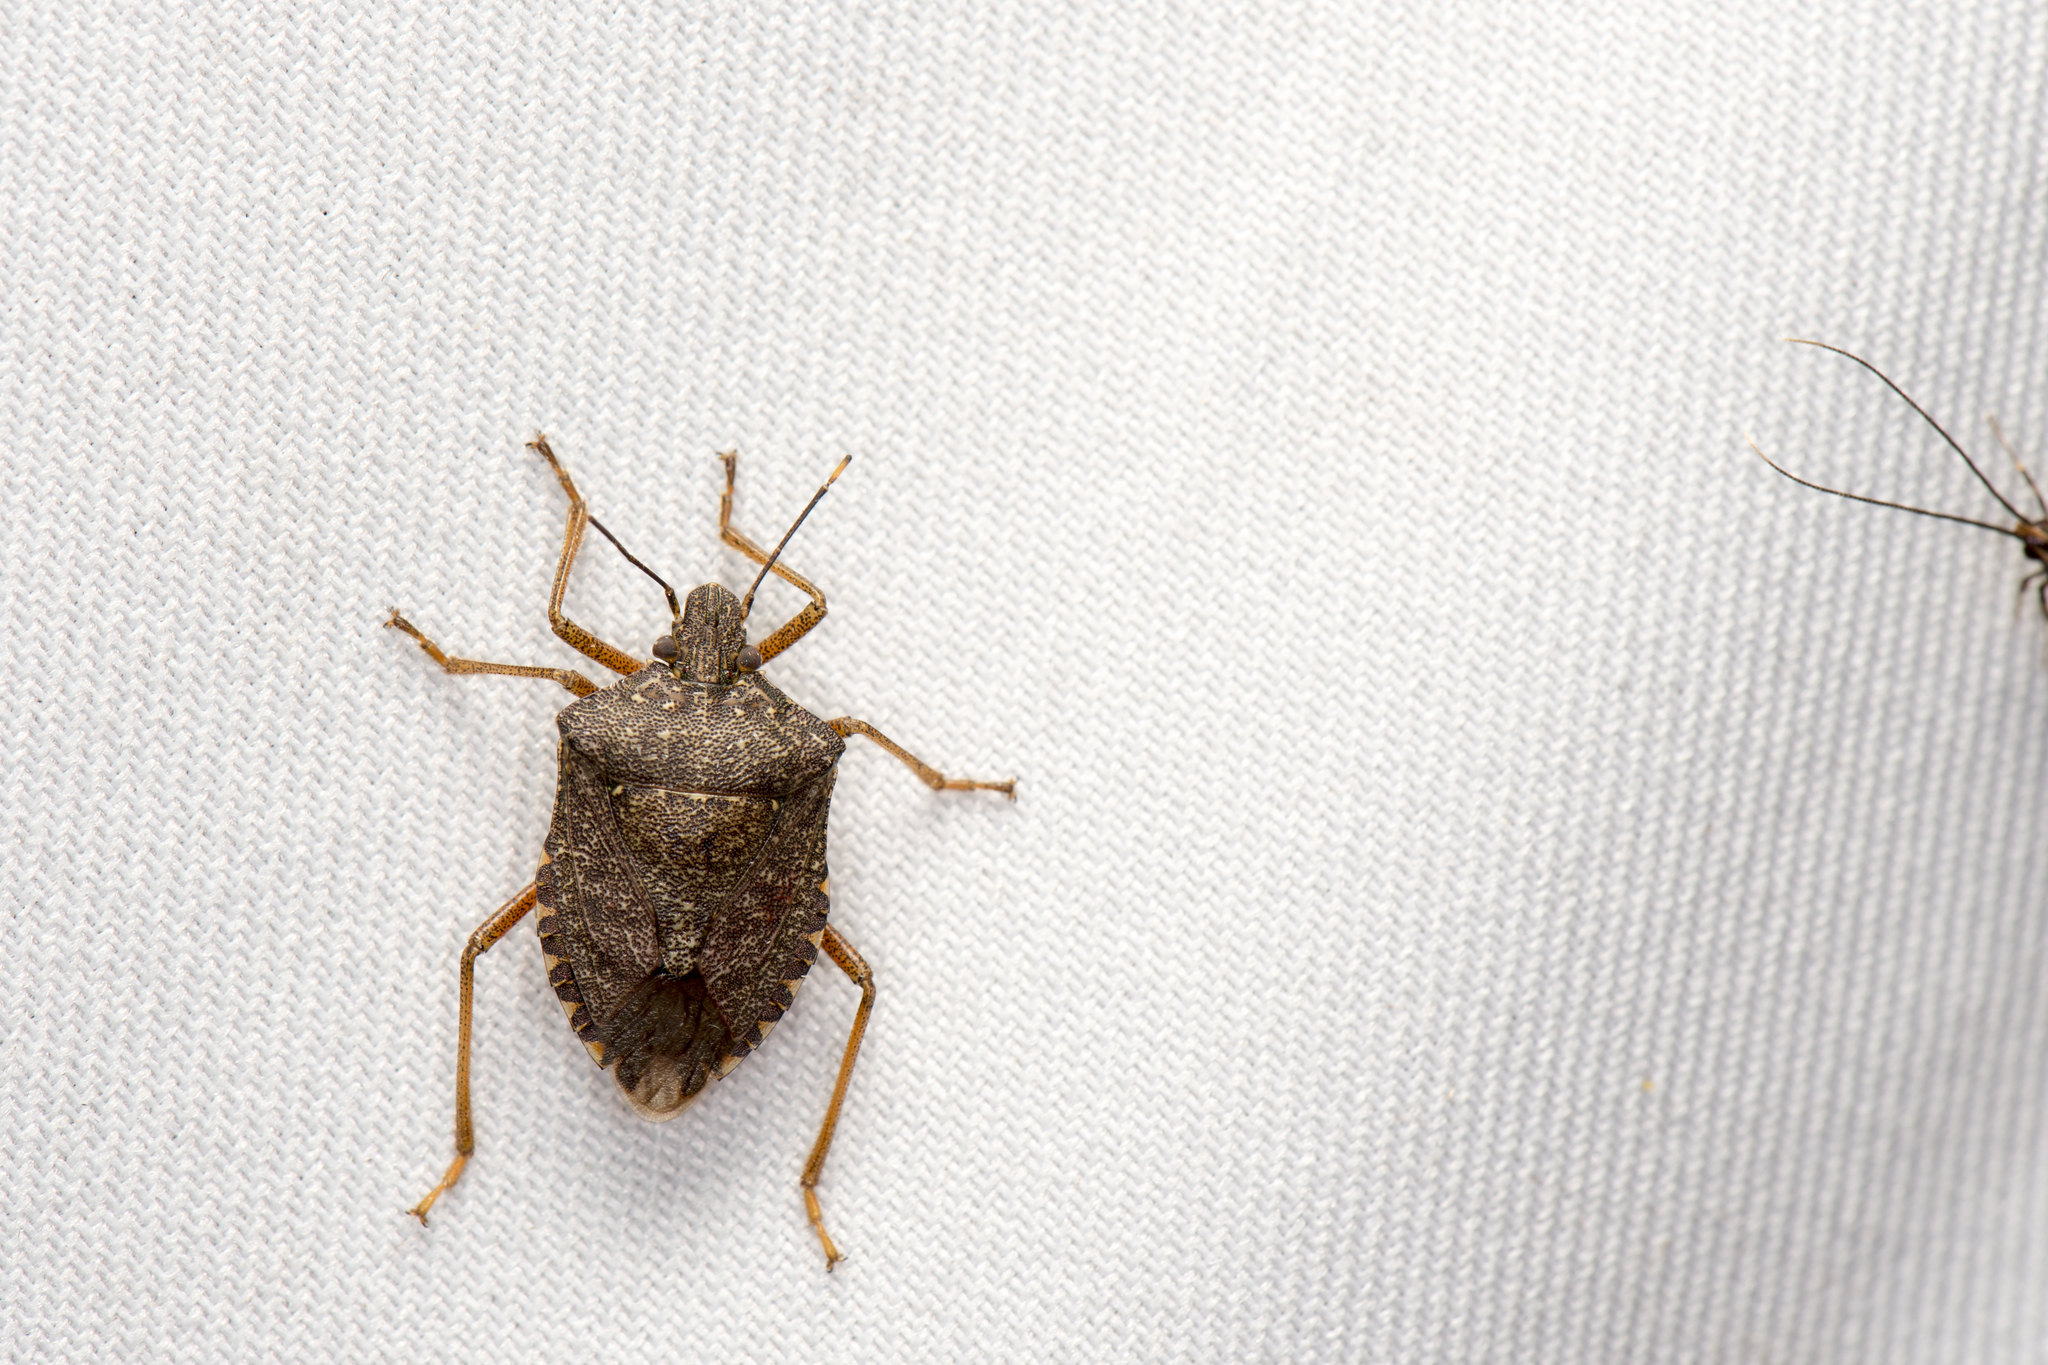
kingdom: Animalia
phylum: Arthropoda
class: Insecta
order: Hemiptera
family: Pentatomidae
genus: Halyomorpha
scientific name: Halyomorpha halys
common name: Brown marmorated stink bug
